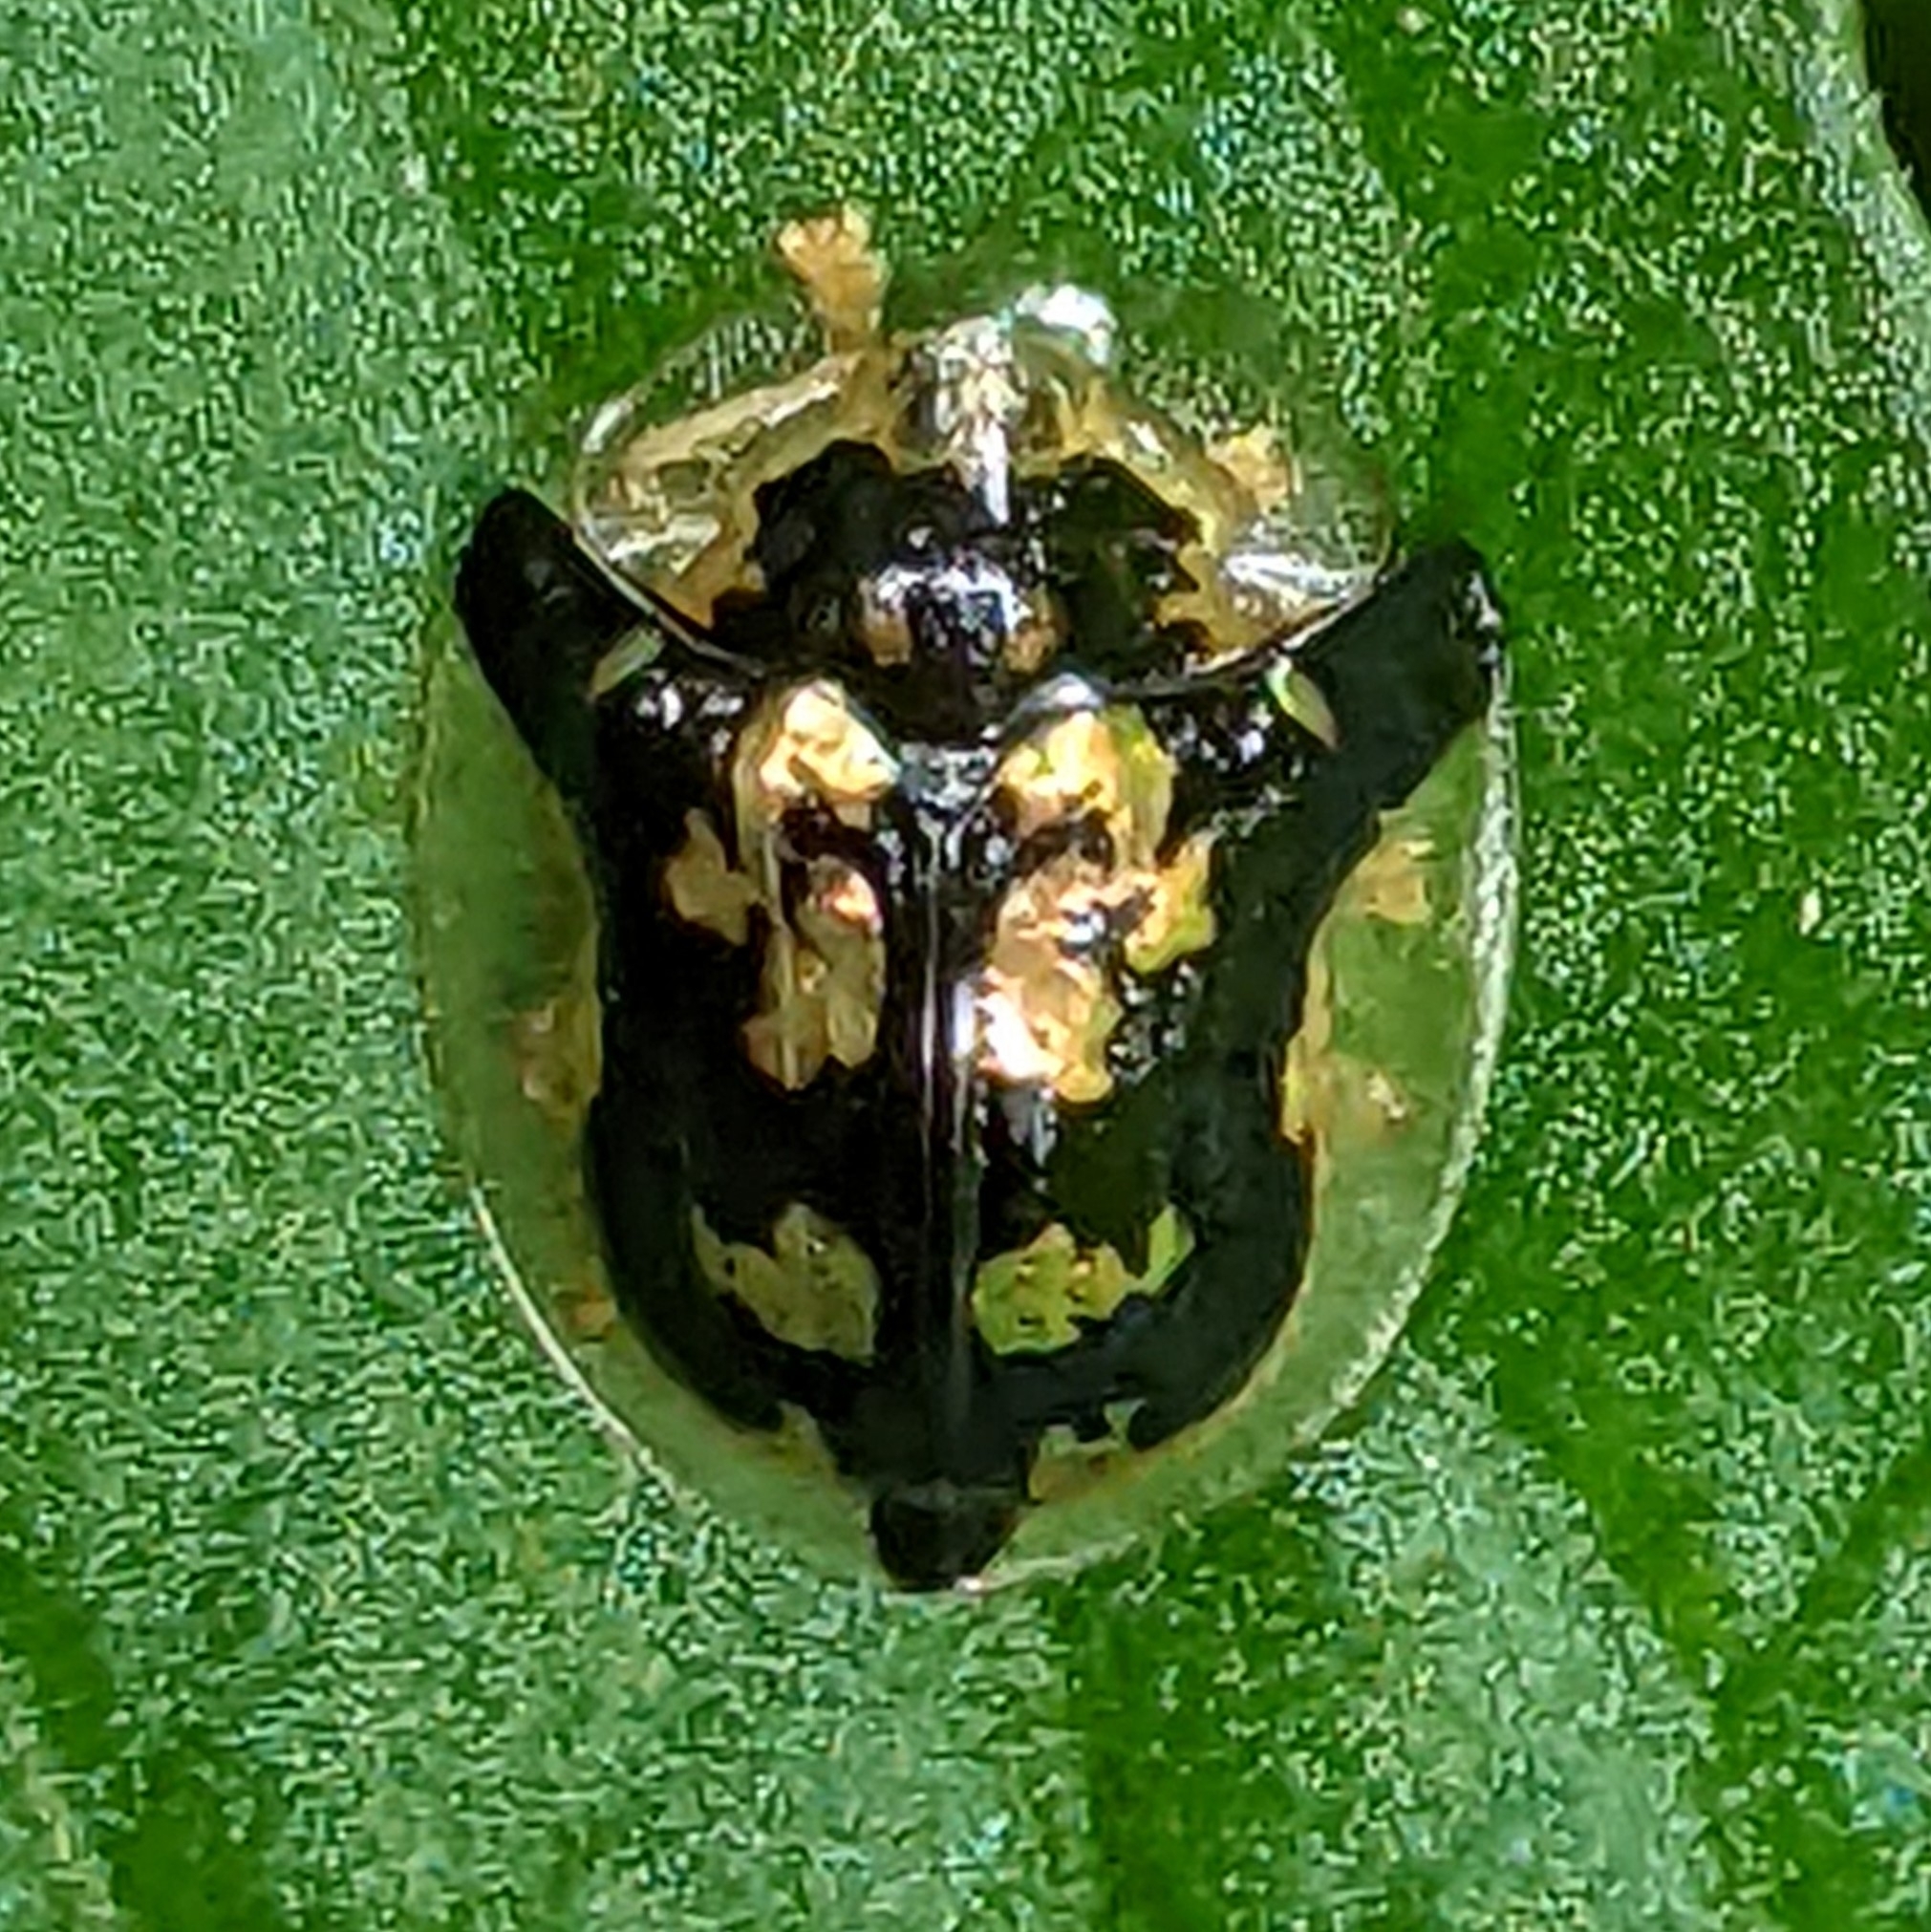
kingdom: Animalia
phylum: Arthropoda
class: Insecta
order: Coleoptera
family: Chrysomelidae
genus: Deloyala
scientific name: Deloyala guttata
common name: Mottled tortoise beetle
